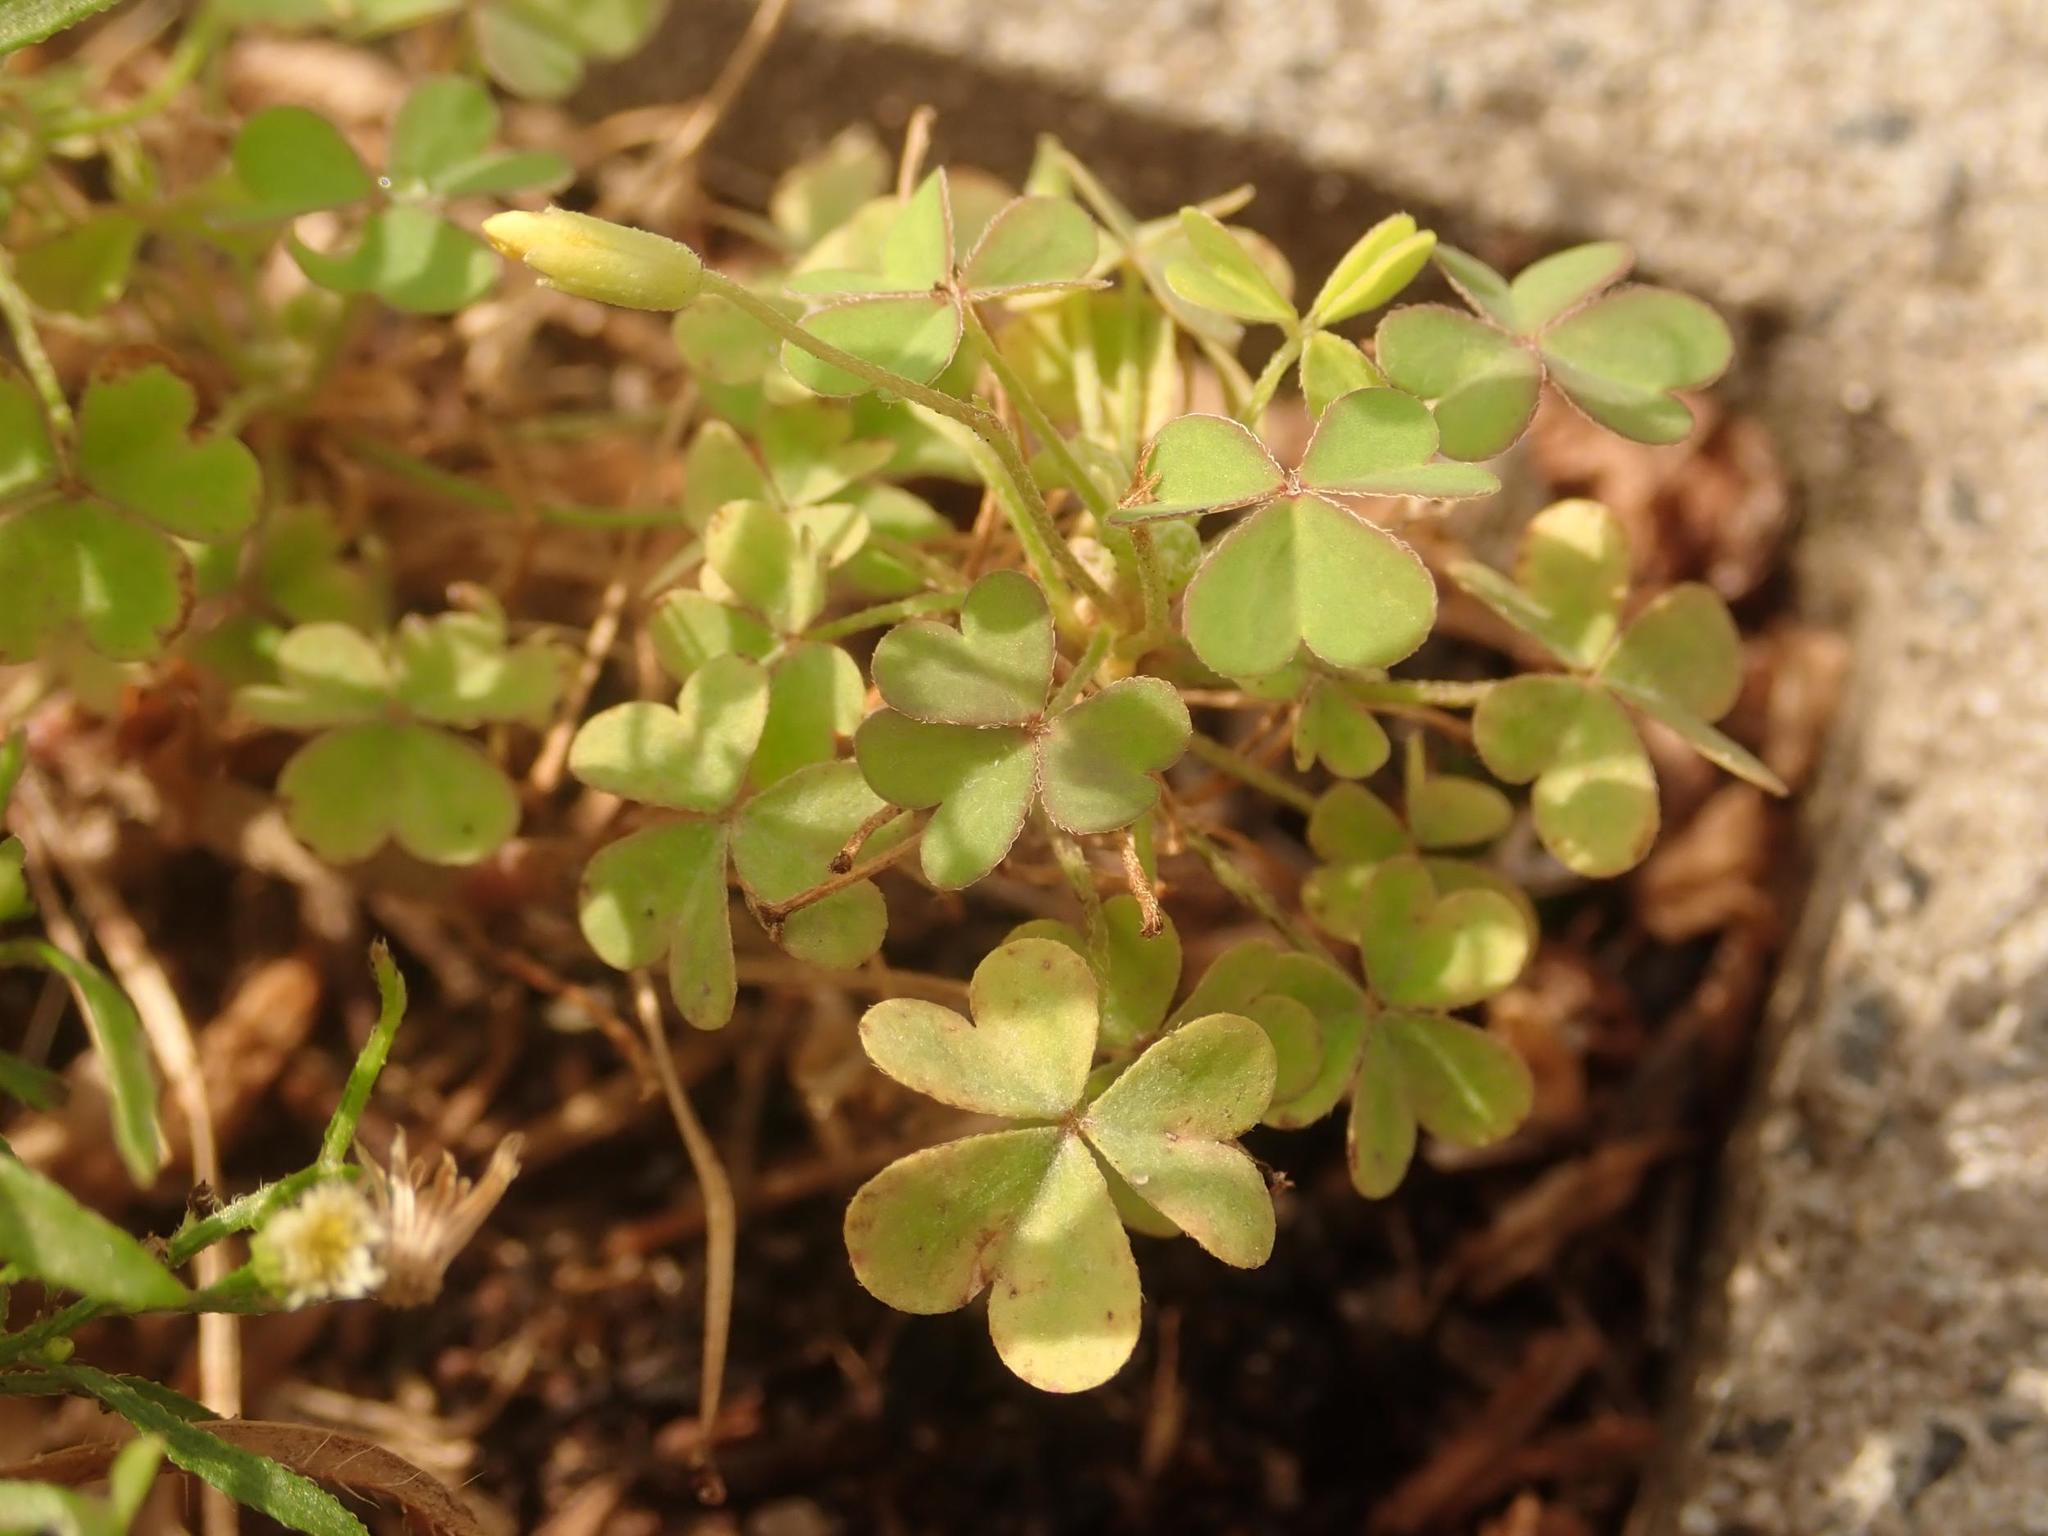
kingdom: Plantae
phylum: Tracheophyta
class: Magnoliopsida
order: Oxalidales
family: Oxalidaceae
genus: Oxalis
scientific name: Oxalis corniculata
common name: Procumbent yellow-sorrel
